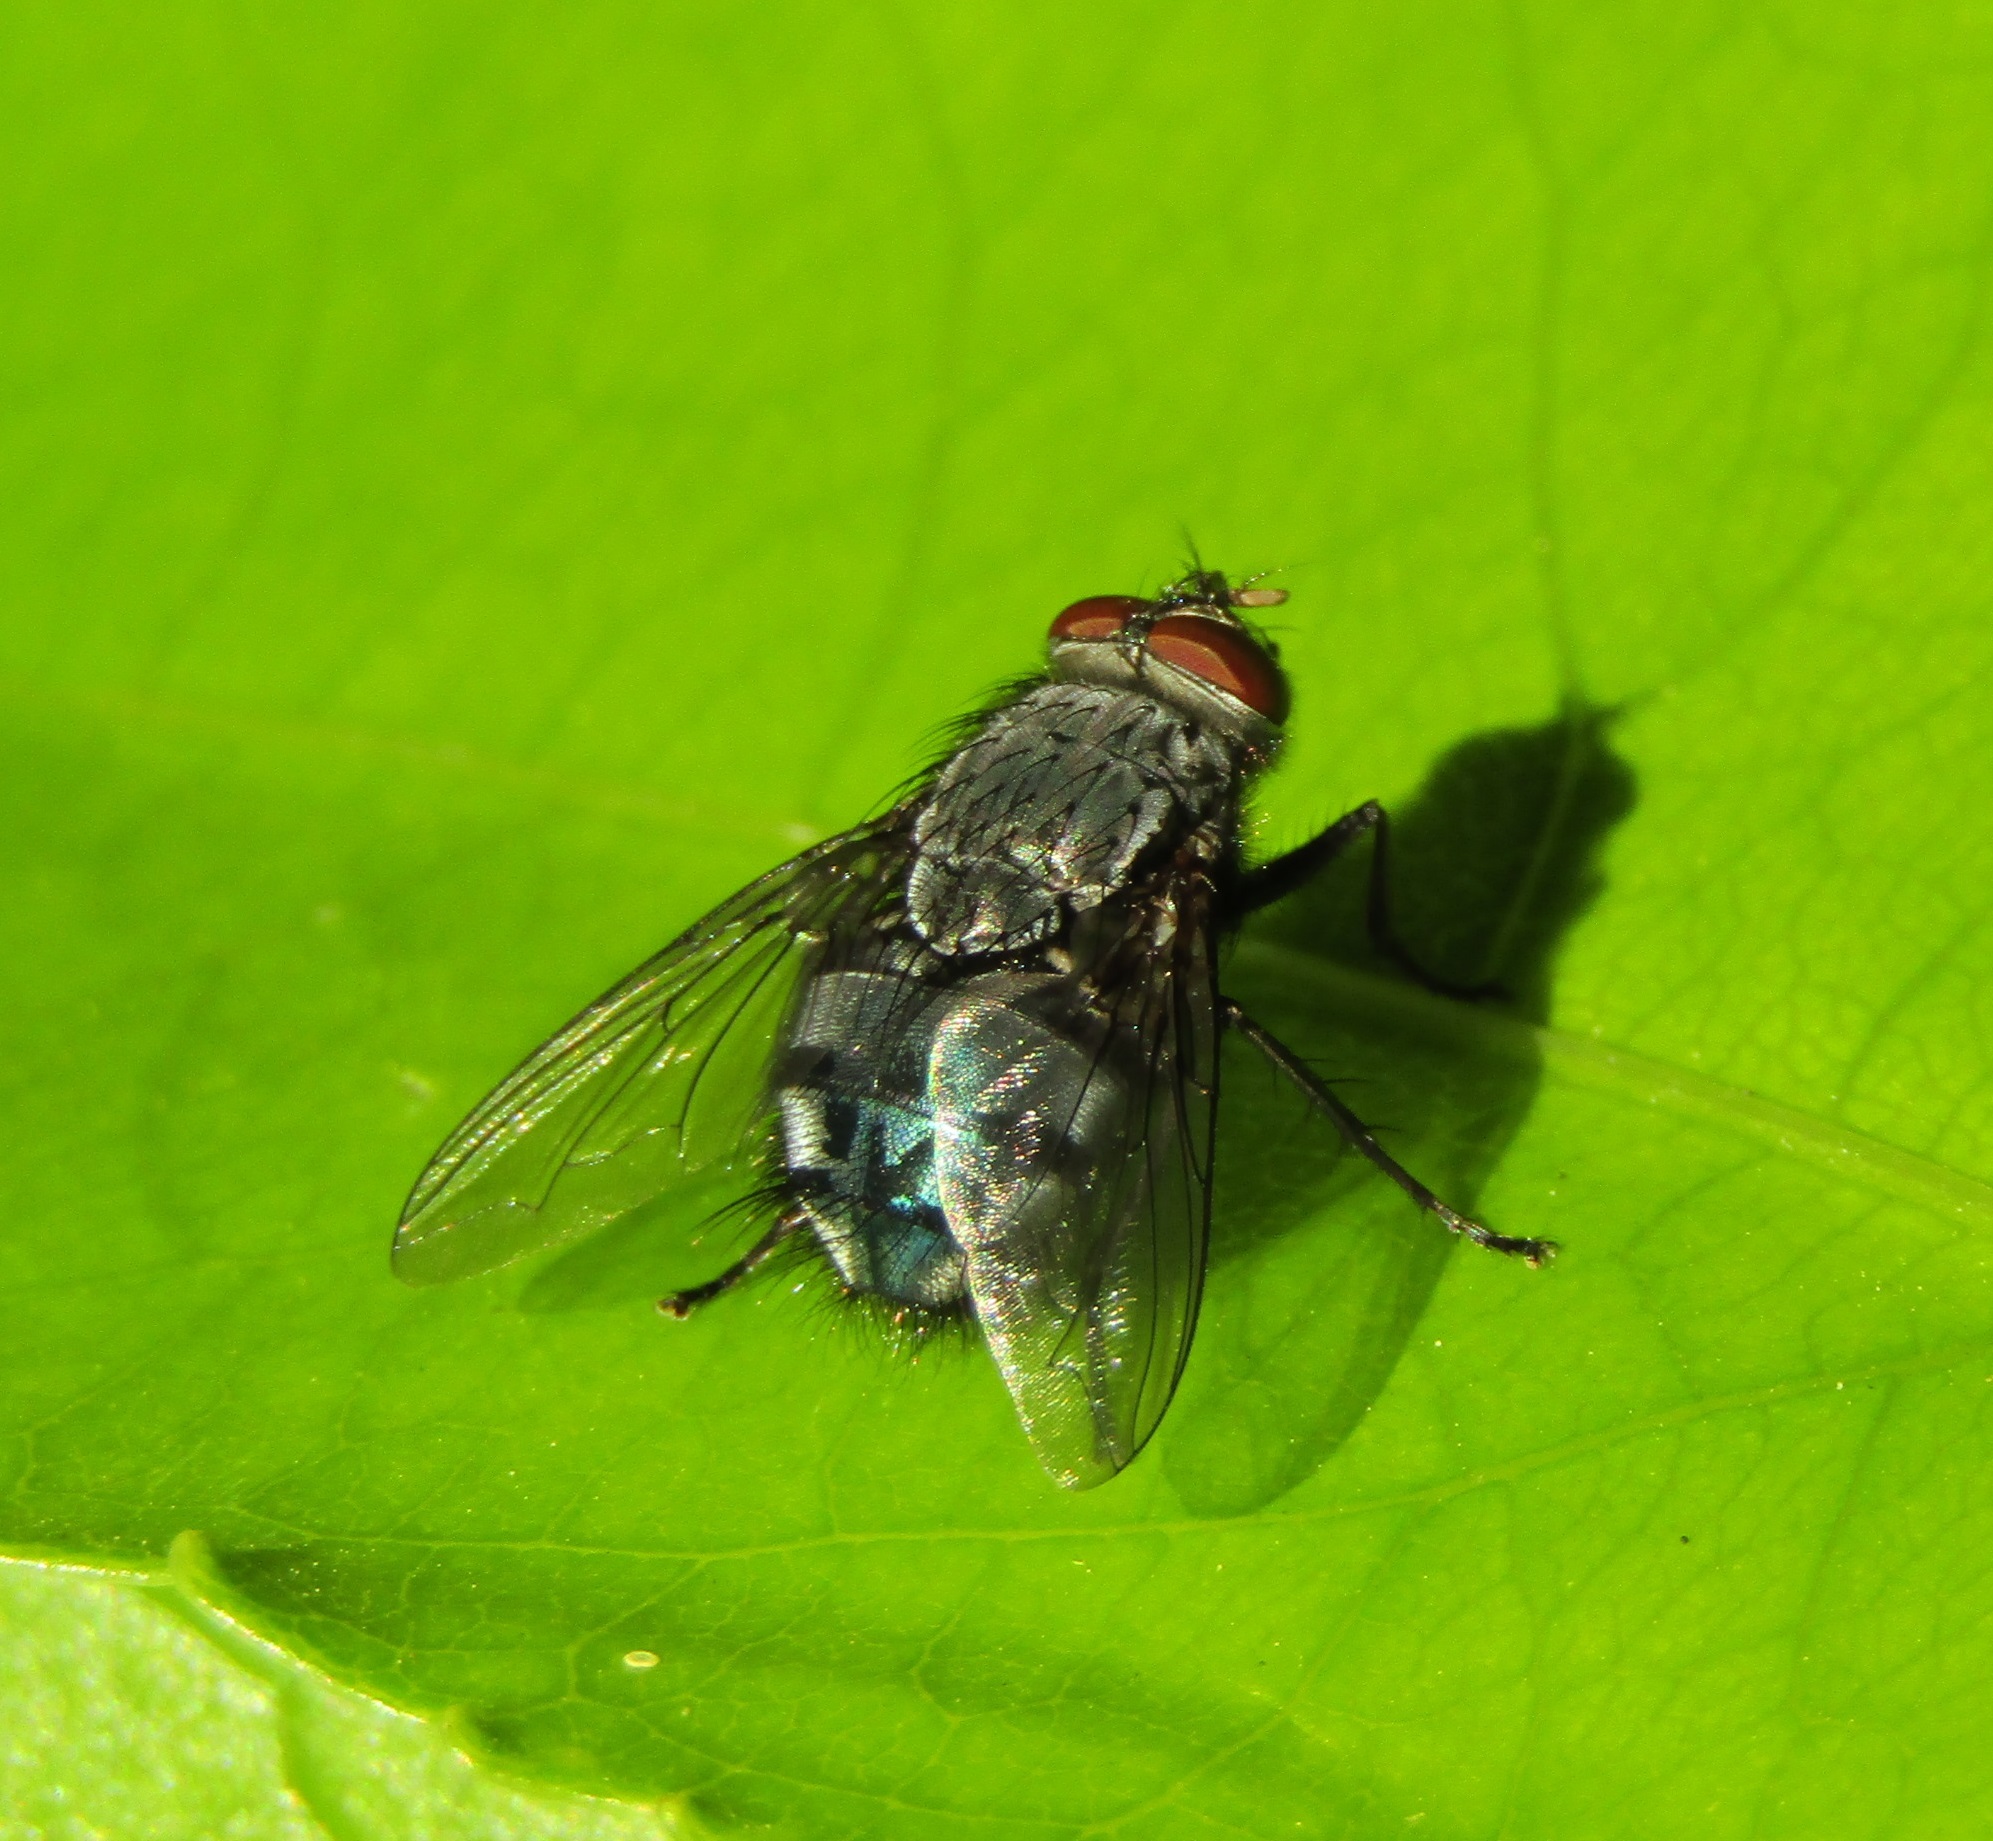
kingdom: Animalia
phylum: Arthropoda
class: Insecta
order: Diptera
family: Calliphoridae
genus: Calliphora
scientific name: Calliphora vicina
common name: Common blow flie
